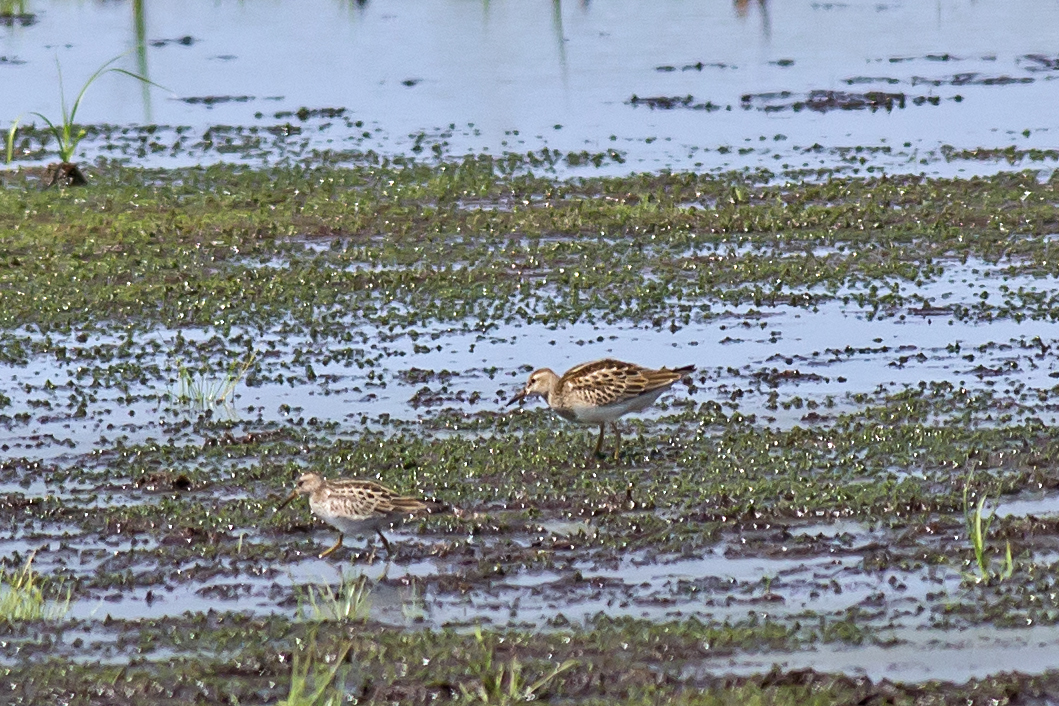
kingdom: Animalia
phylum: Chordata
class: Aves
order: Charadriiformes
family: Scolopacidae
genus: Calidris
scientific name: Calidris melanotos
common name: Pectoral sandpiper
